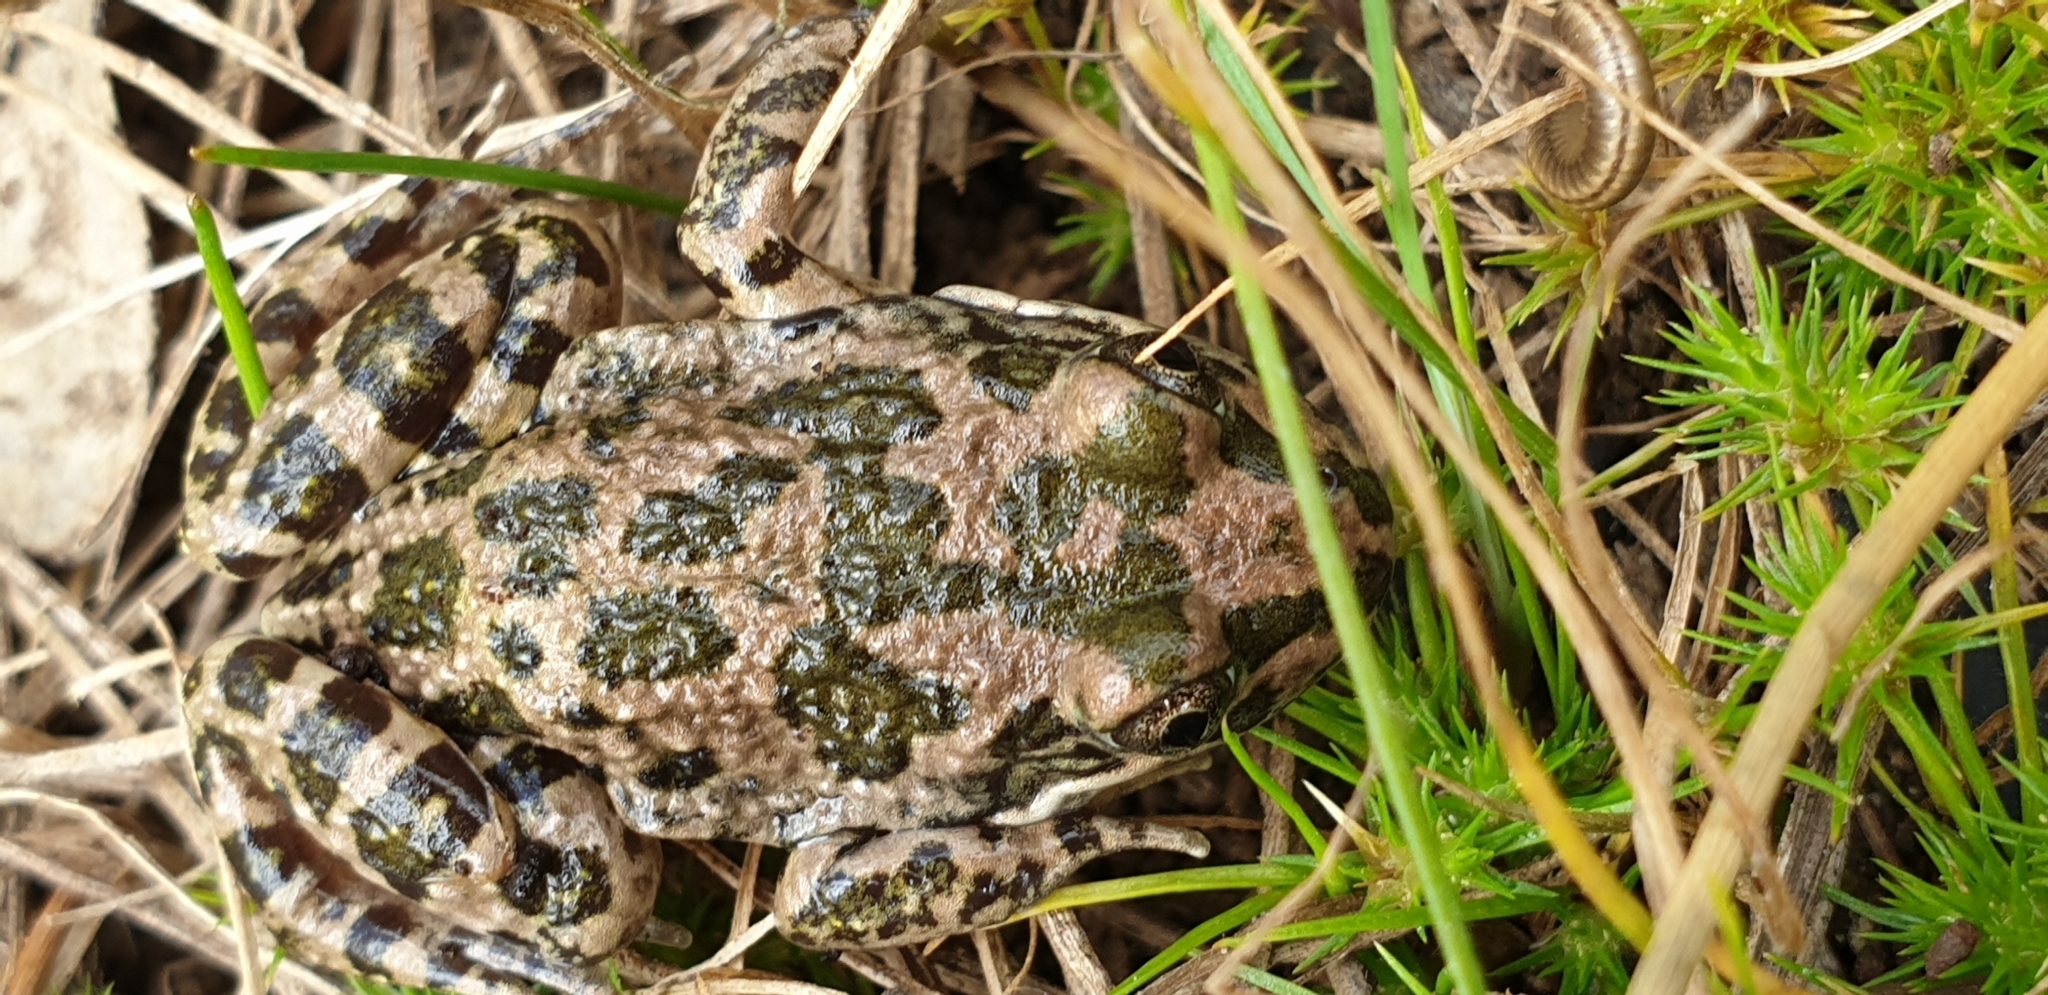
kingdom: Animalia
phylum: Chordata
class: Amphibia
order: Anura
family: Limnodynastidae
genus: Limnodynastes
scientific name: Limnodynastes tasmaniensis
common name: Spotted marsh frog
